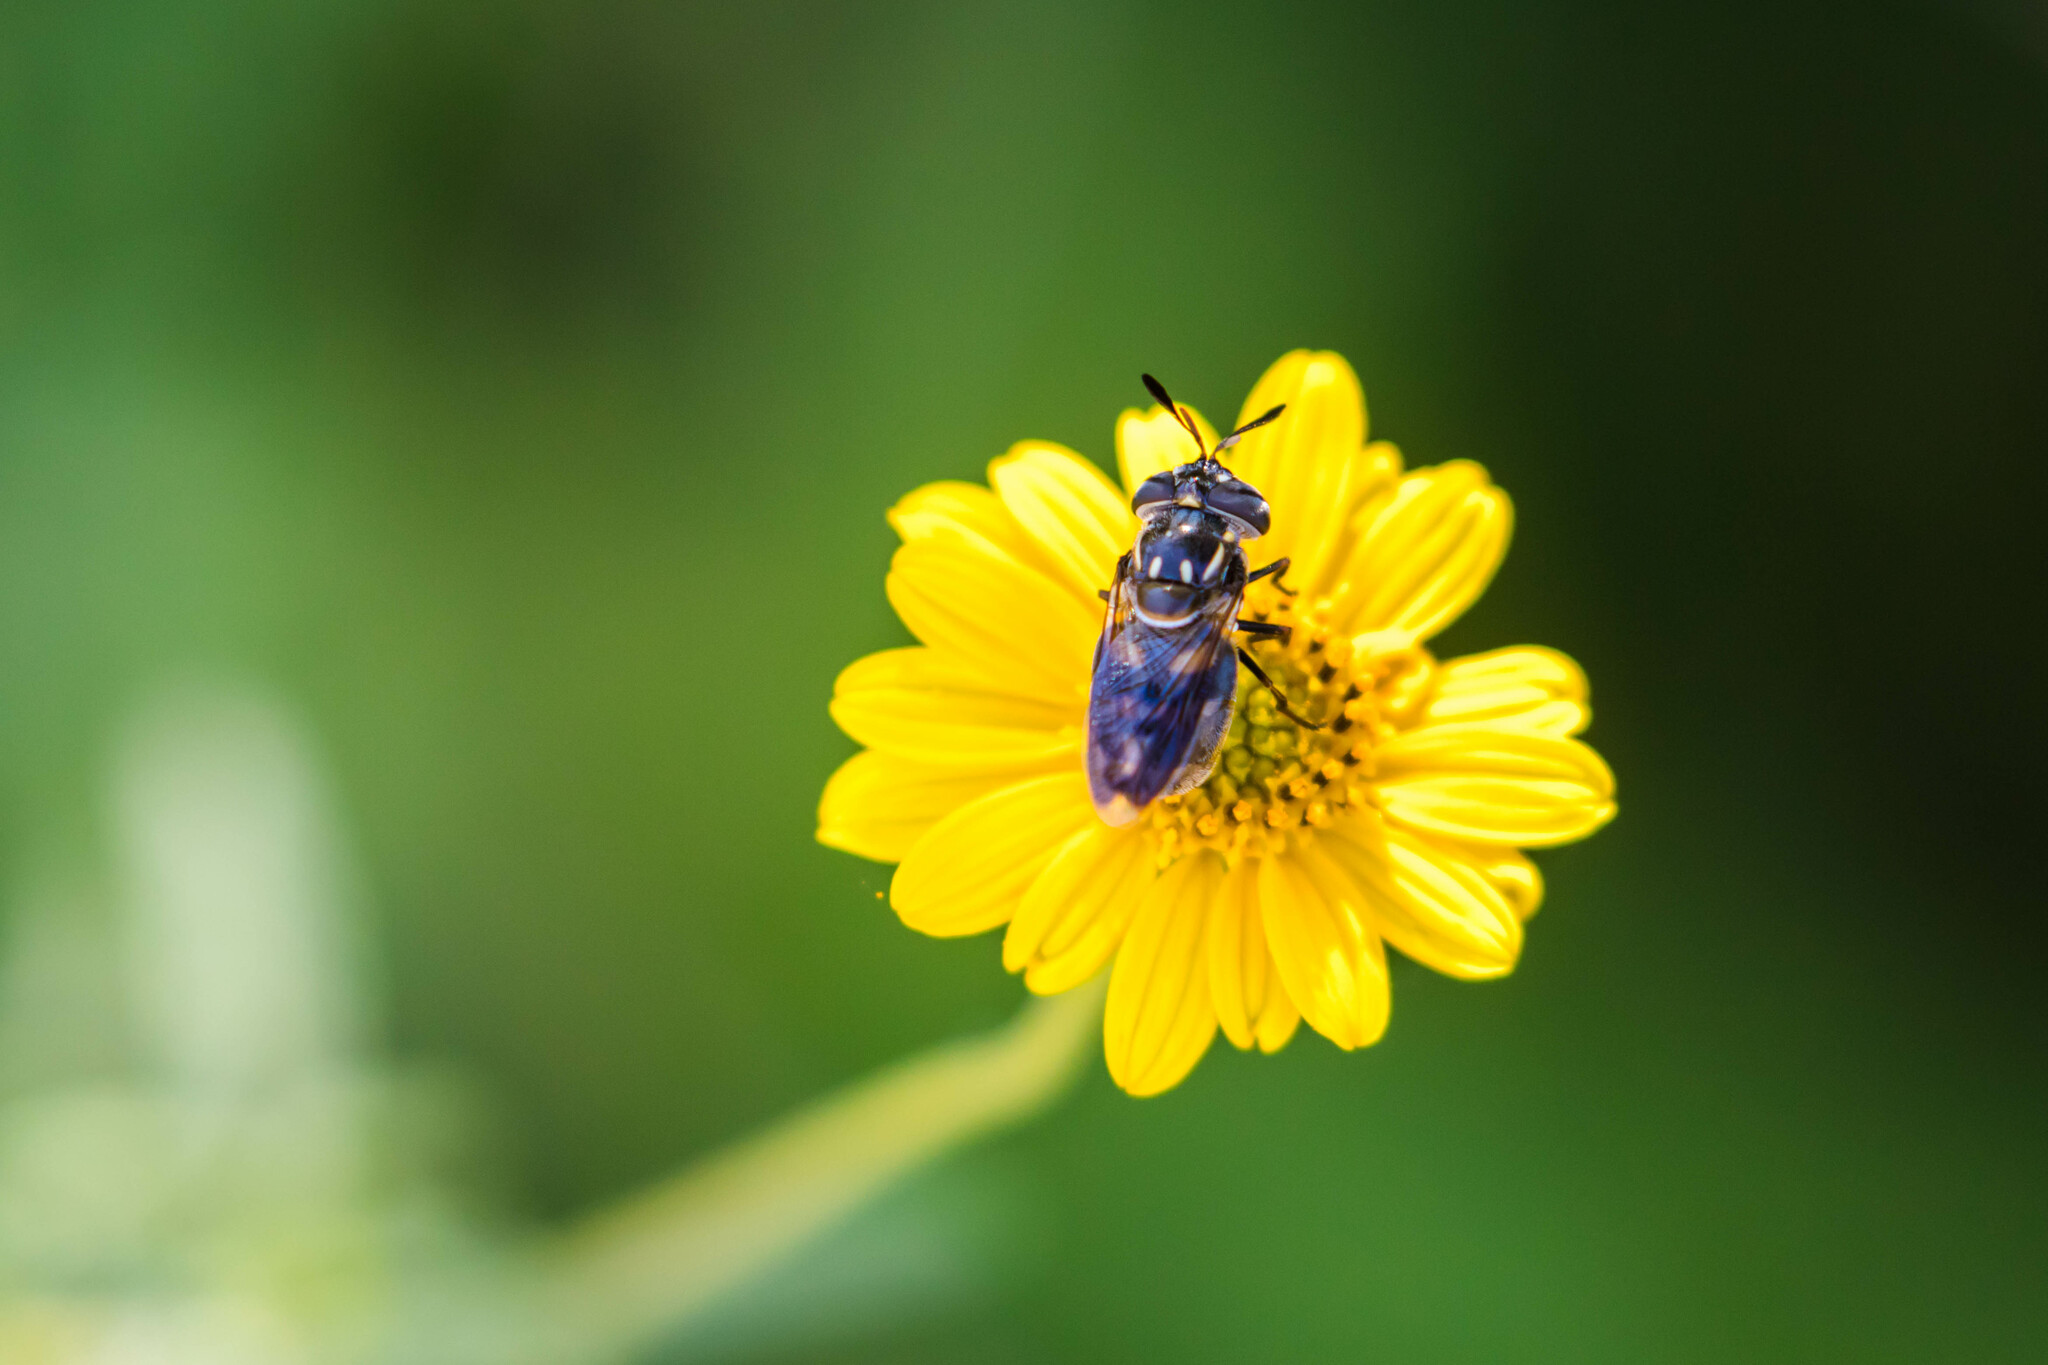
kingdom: Animalia
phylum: Arthropoda
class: Insecta
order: Diptera
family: Syrphidae
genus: Copestylum
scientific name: Copestylum limbipenne
